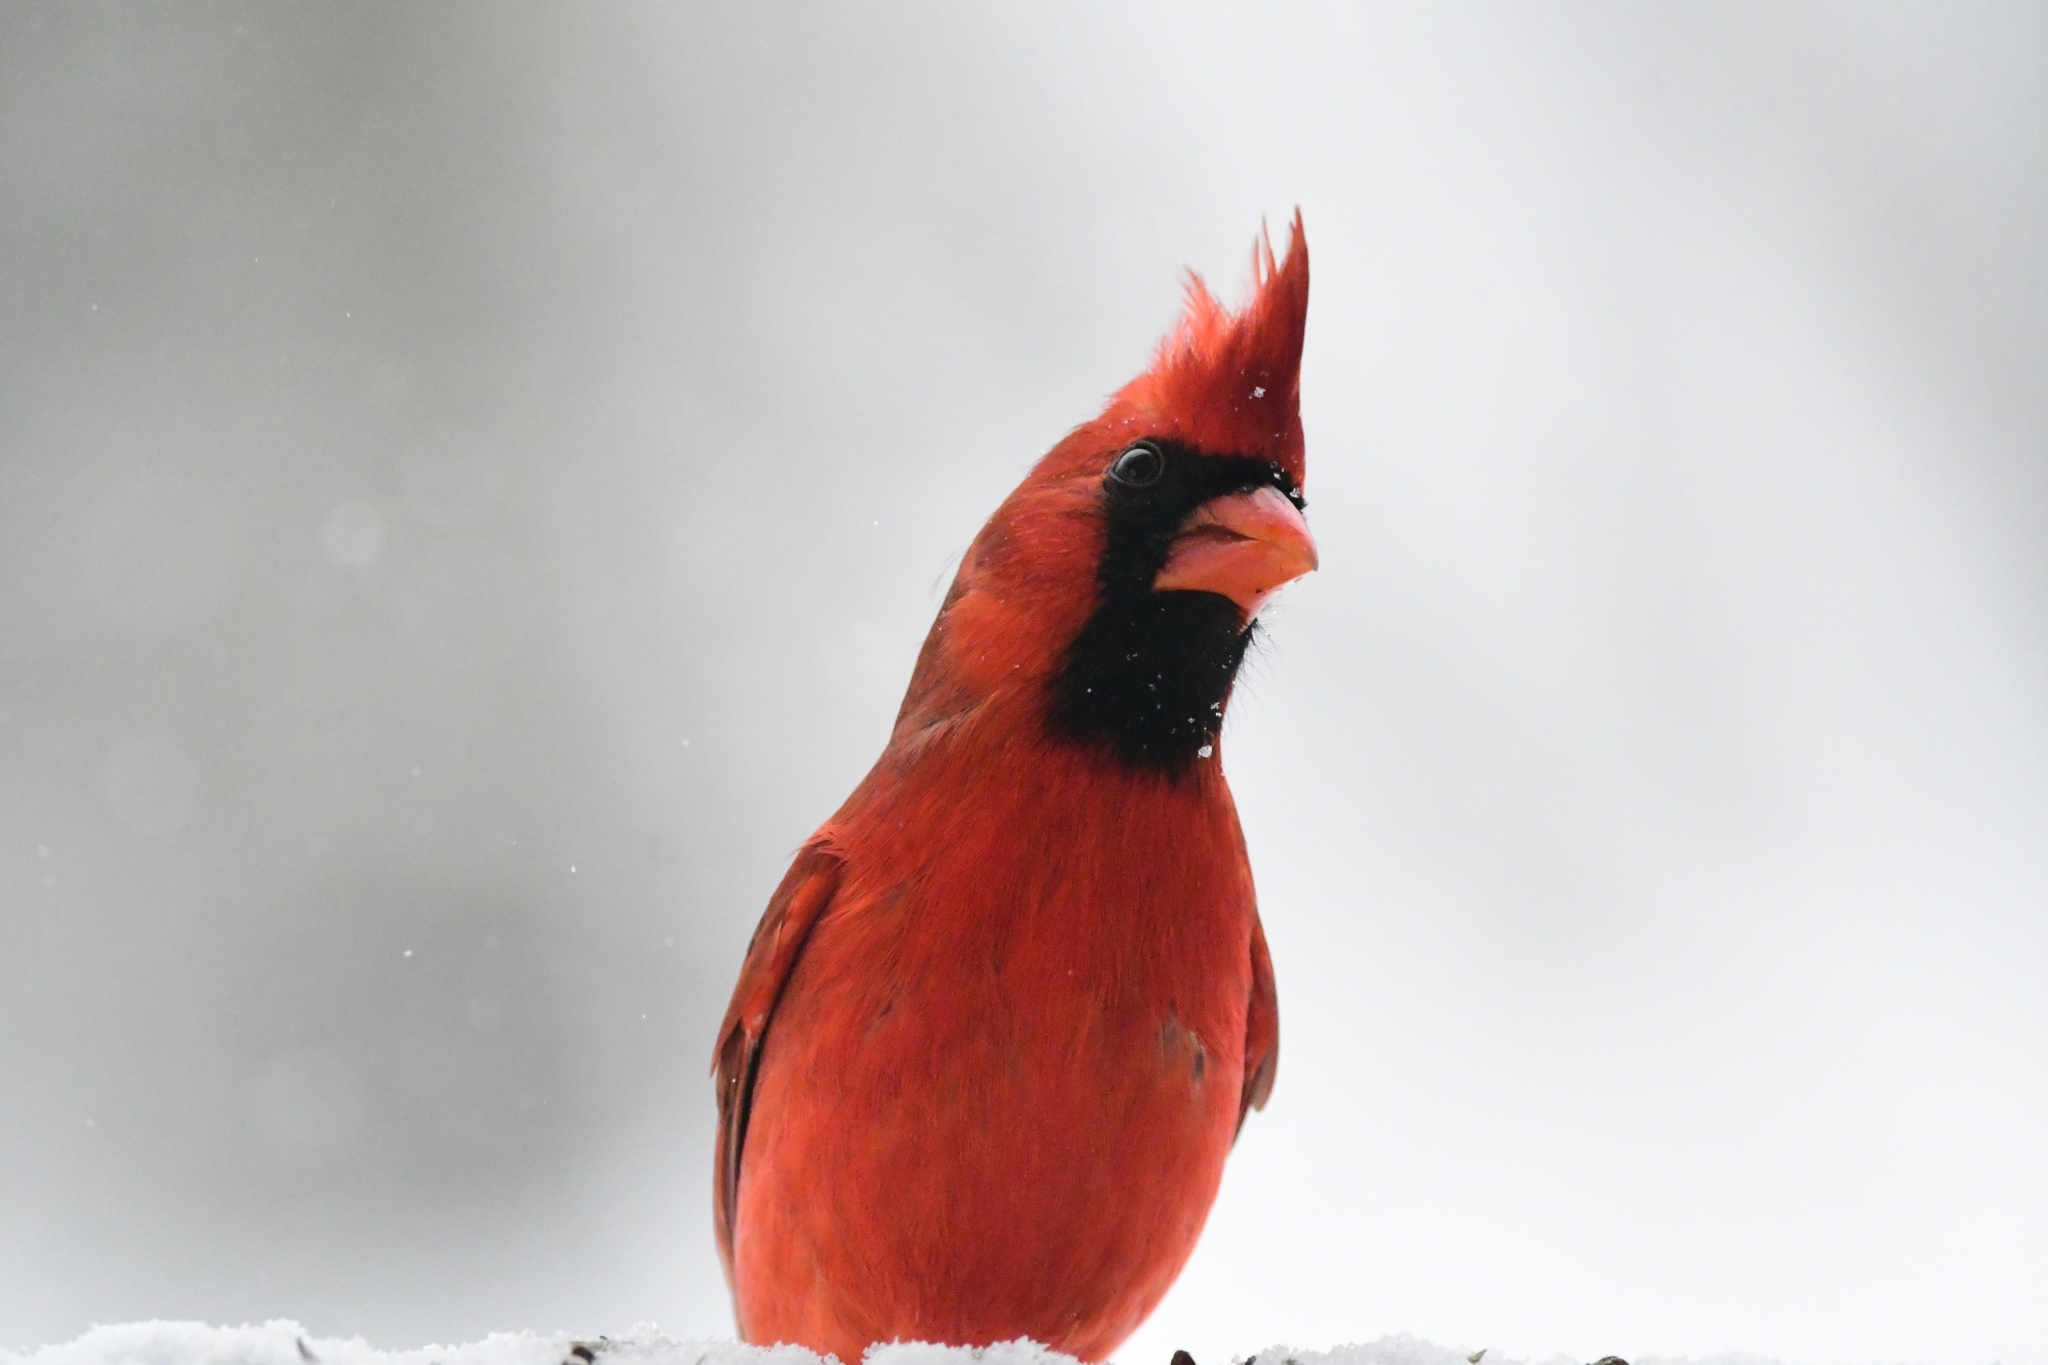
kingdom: Animalia
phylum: Chordata
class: Aves
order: Passeriformes
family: Cardinalidae
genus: Cardinalis
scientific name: Cardinalis cardinalis
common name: Northern cardinal
